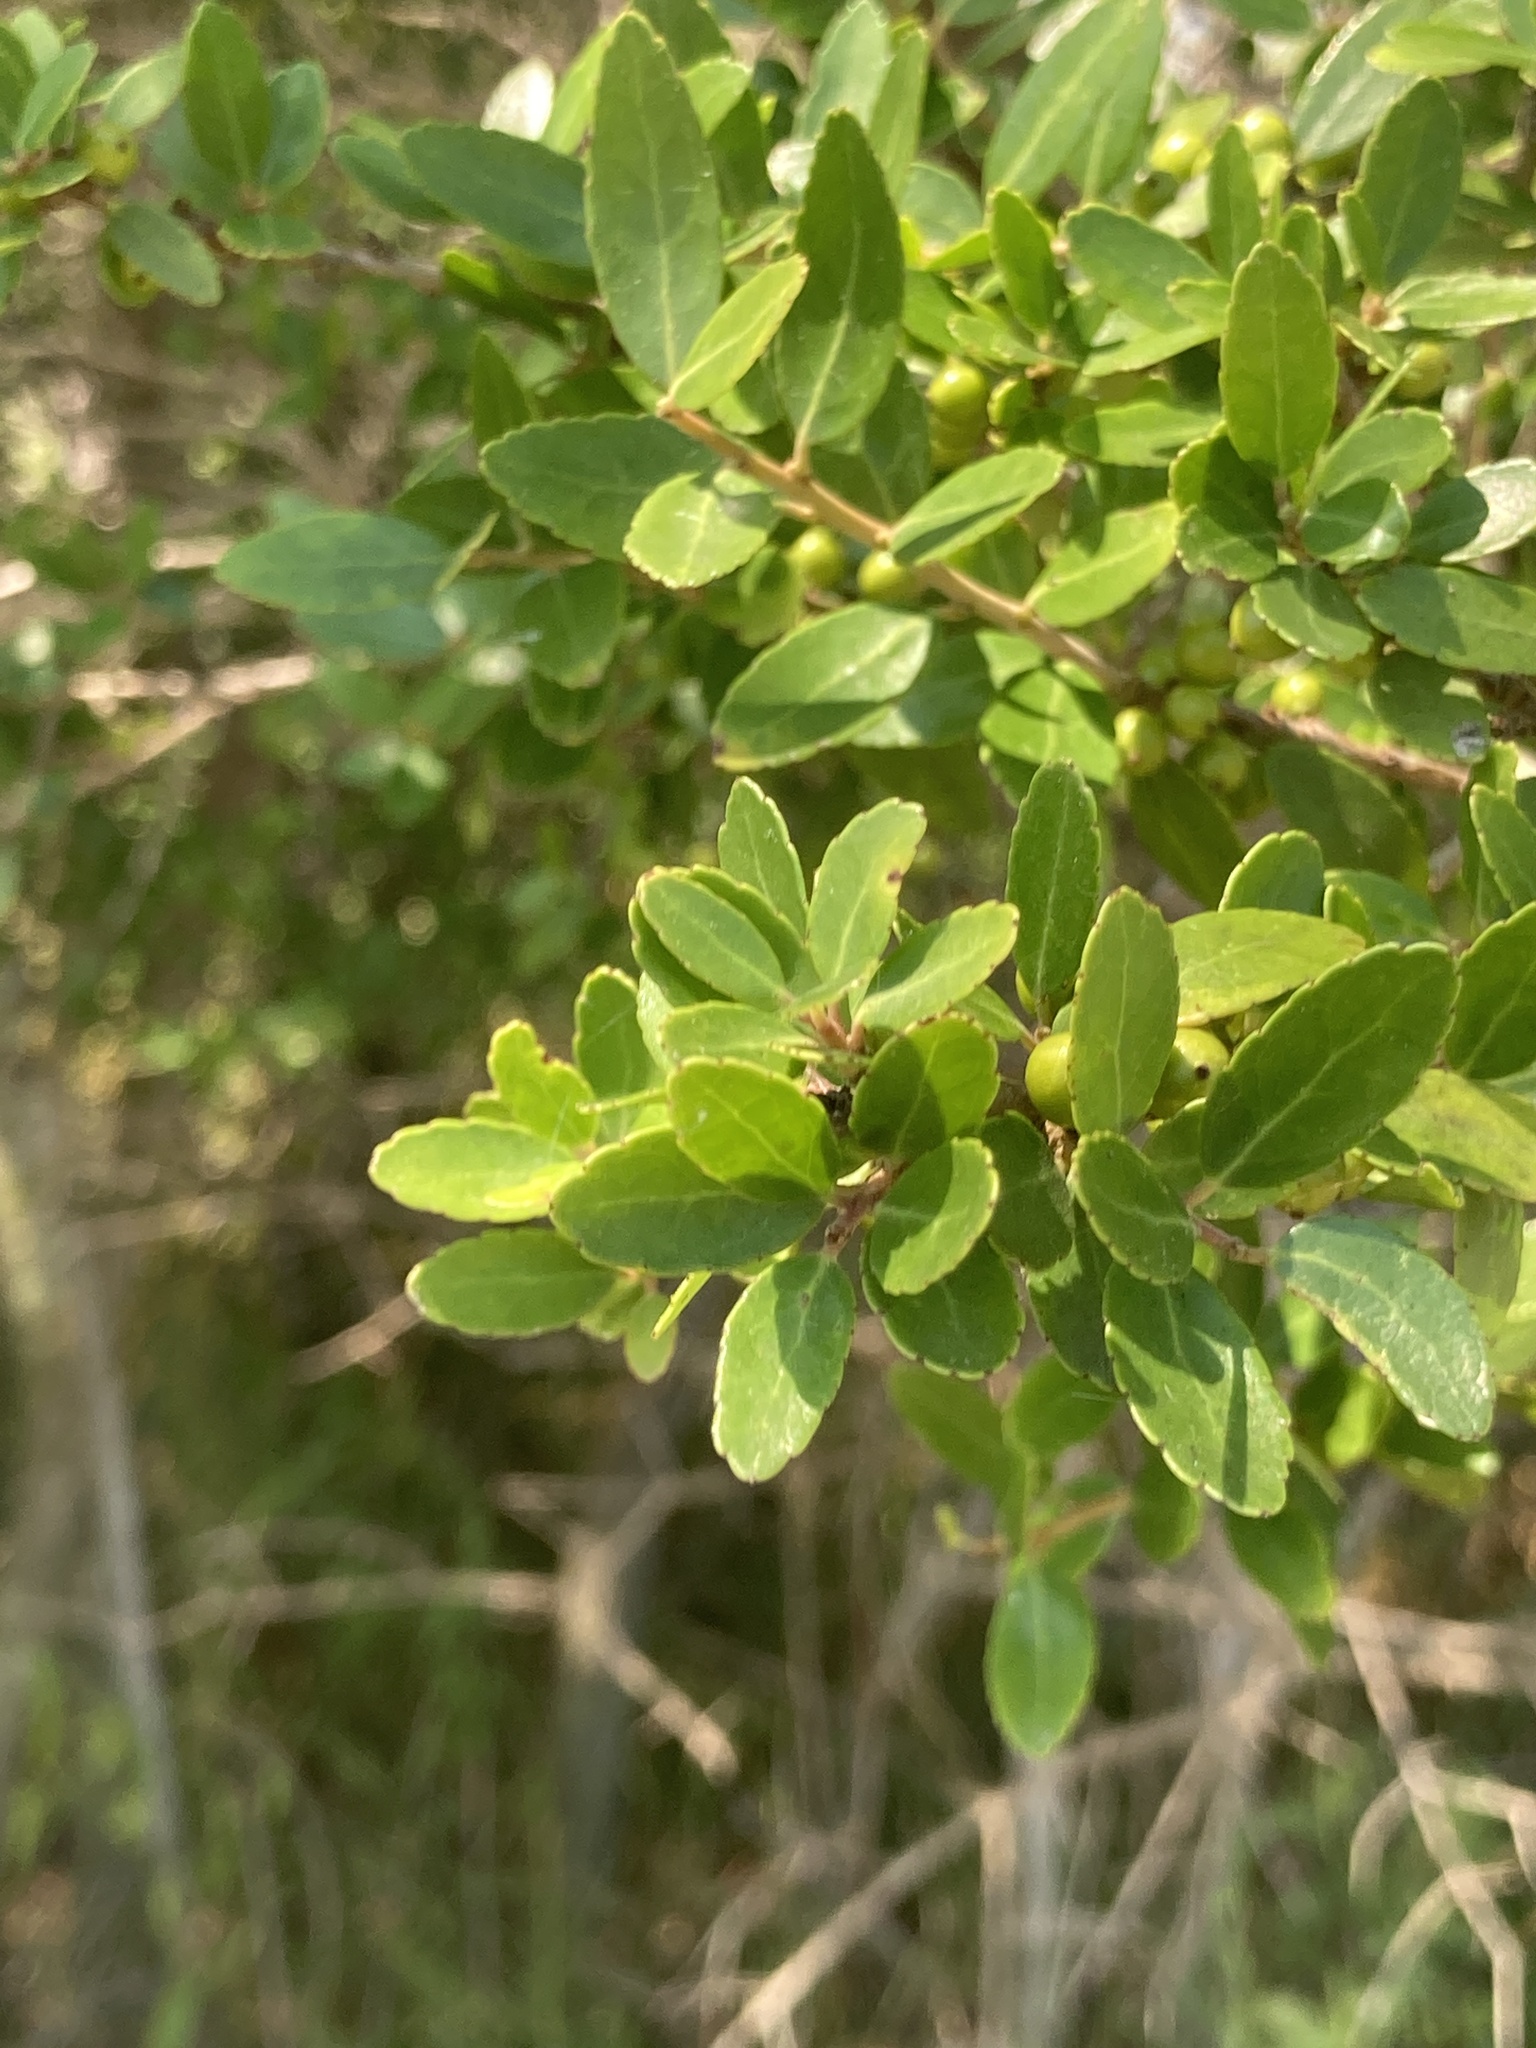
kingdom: Plantae
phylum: Tracheophyta
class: Magnoliopsida
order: Aquifoliales
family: Aquifoliaceae
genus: Ilex
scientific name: Ilex vomitoria
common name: Yaupon holly
